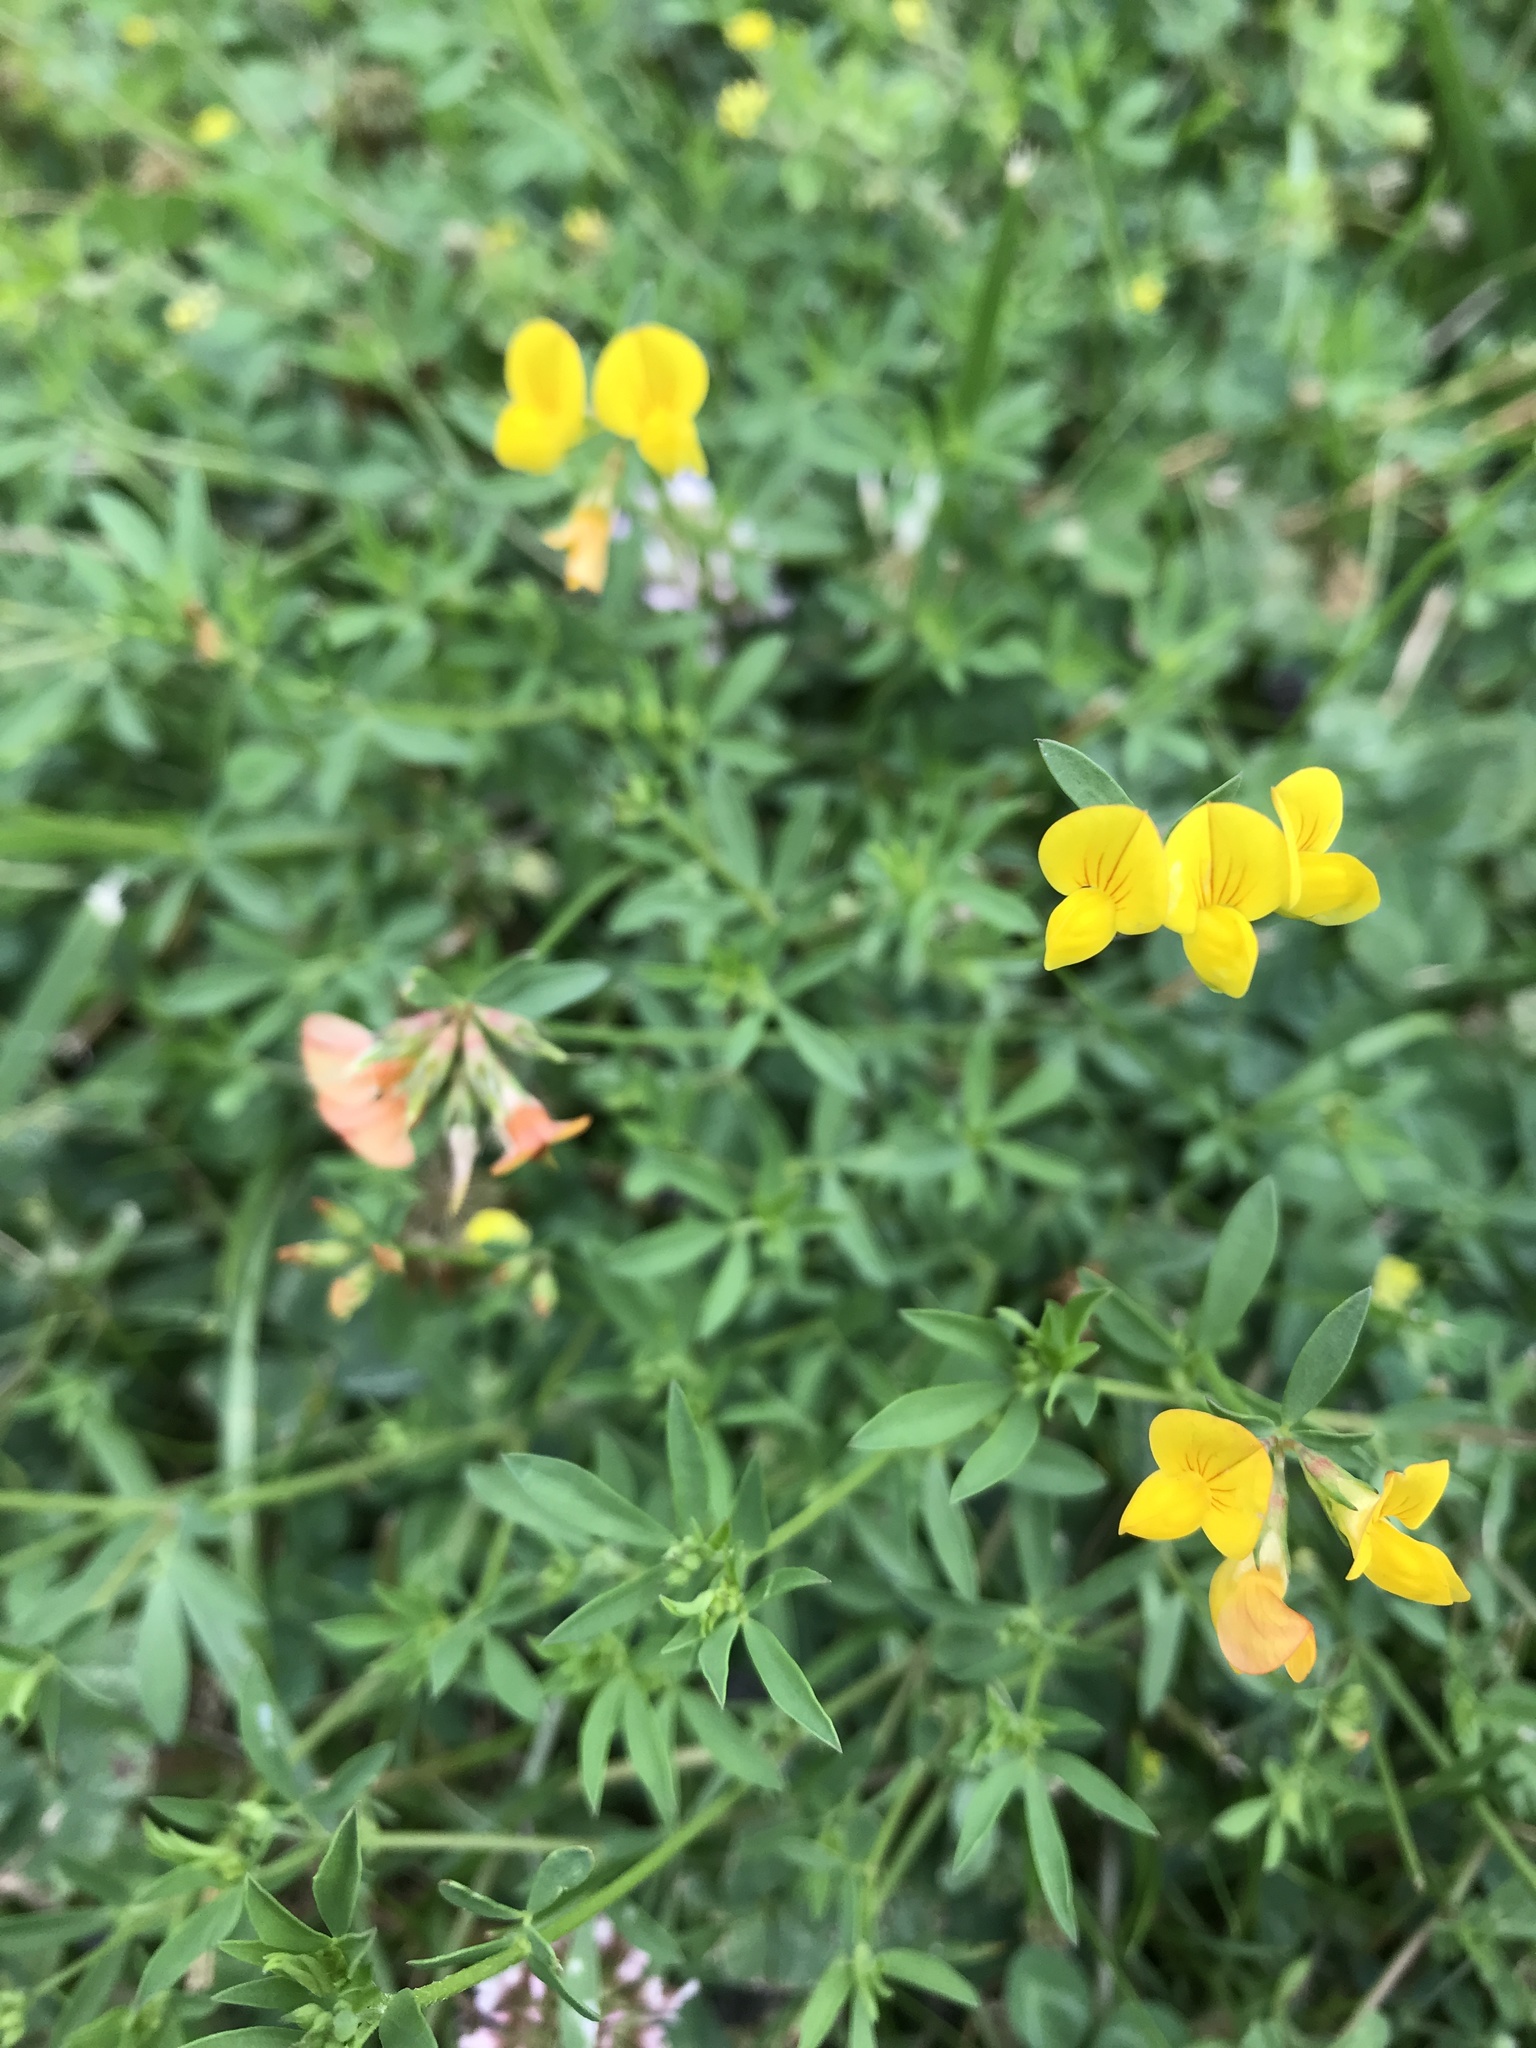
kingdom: Plantae
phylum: Tracheophyta
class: Magnoliopsida
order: Fabales
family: Fabaceae
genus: Lotus
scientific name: Lotus tenuis
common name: Narrow-leaved bird's-foot-trefoil
